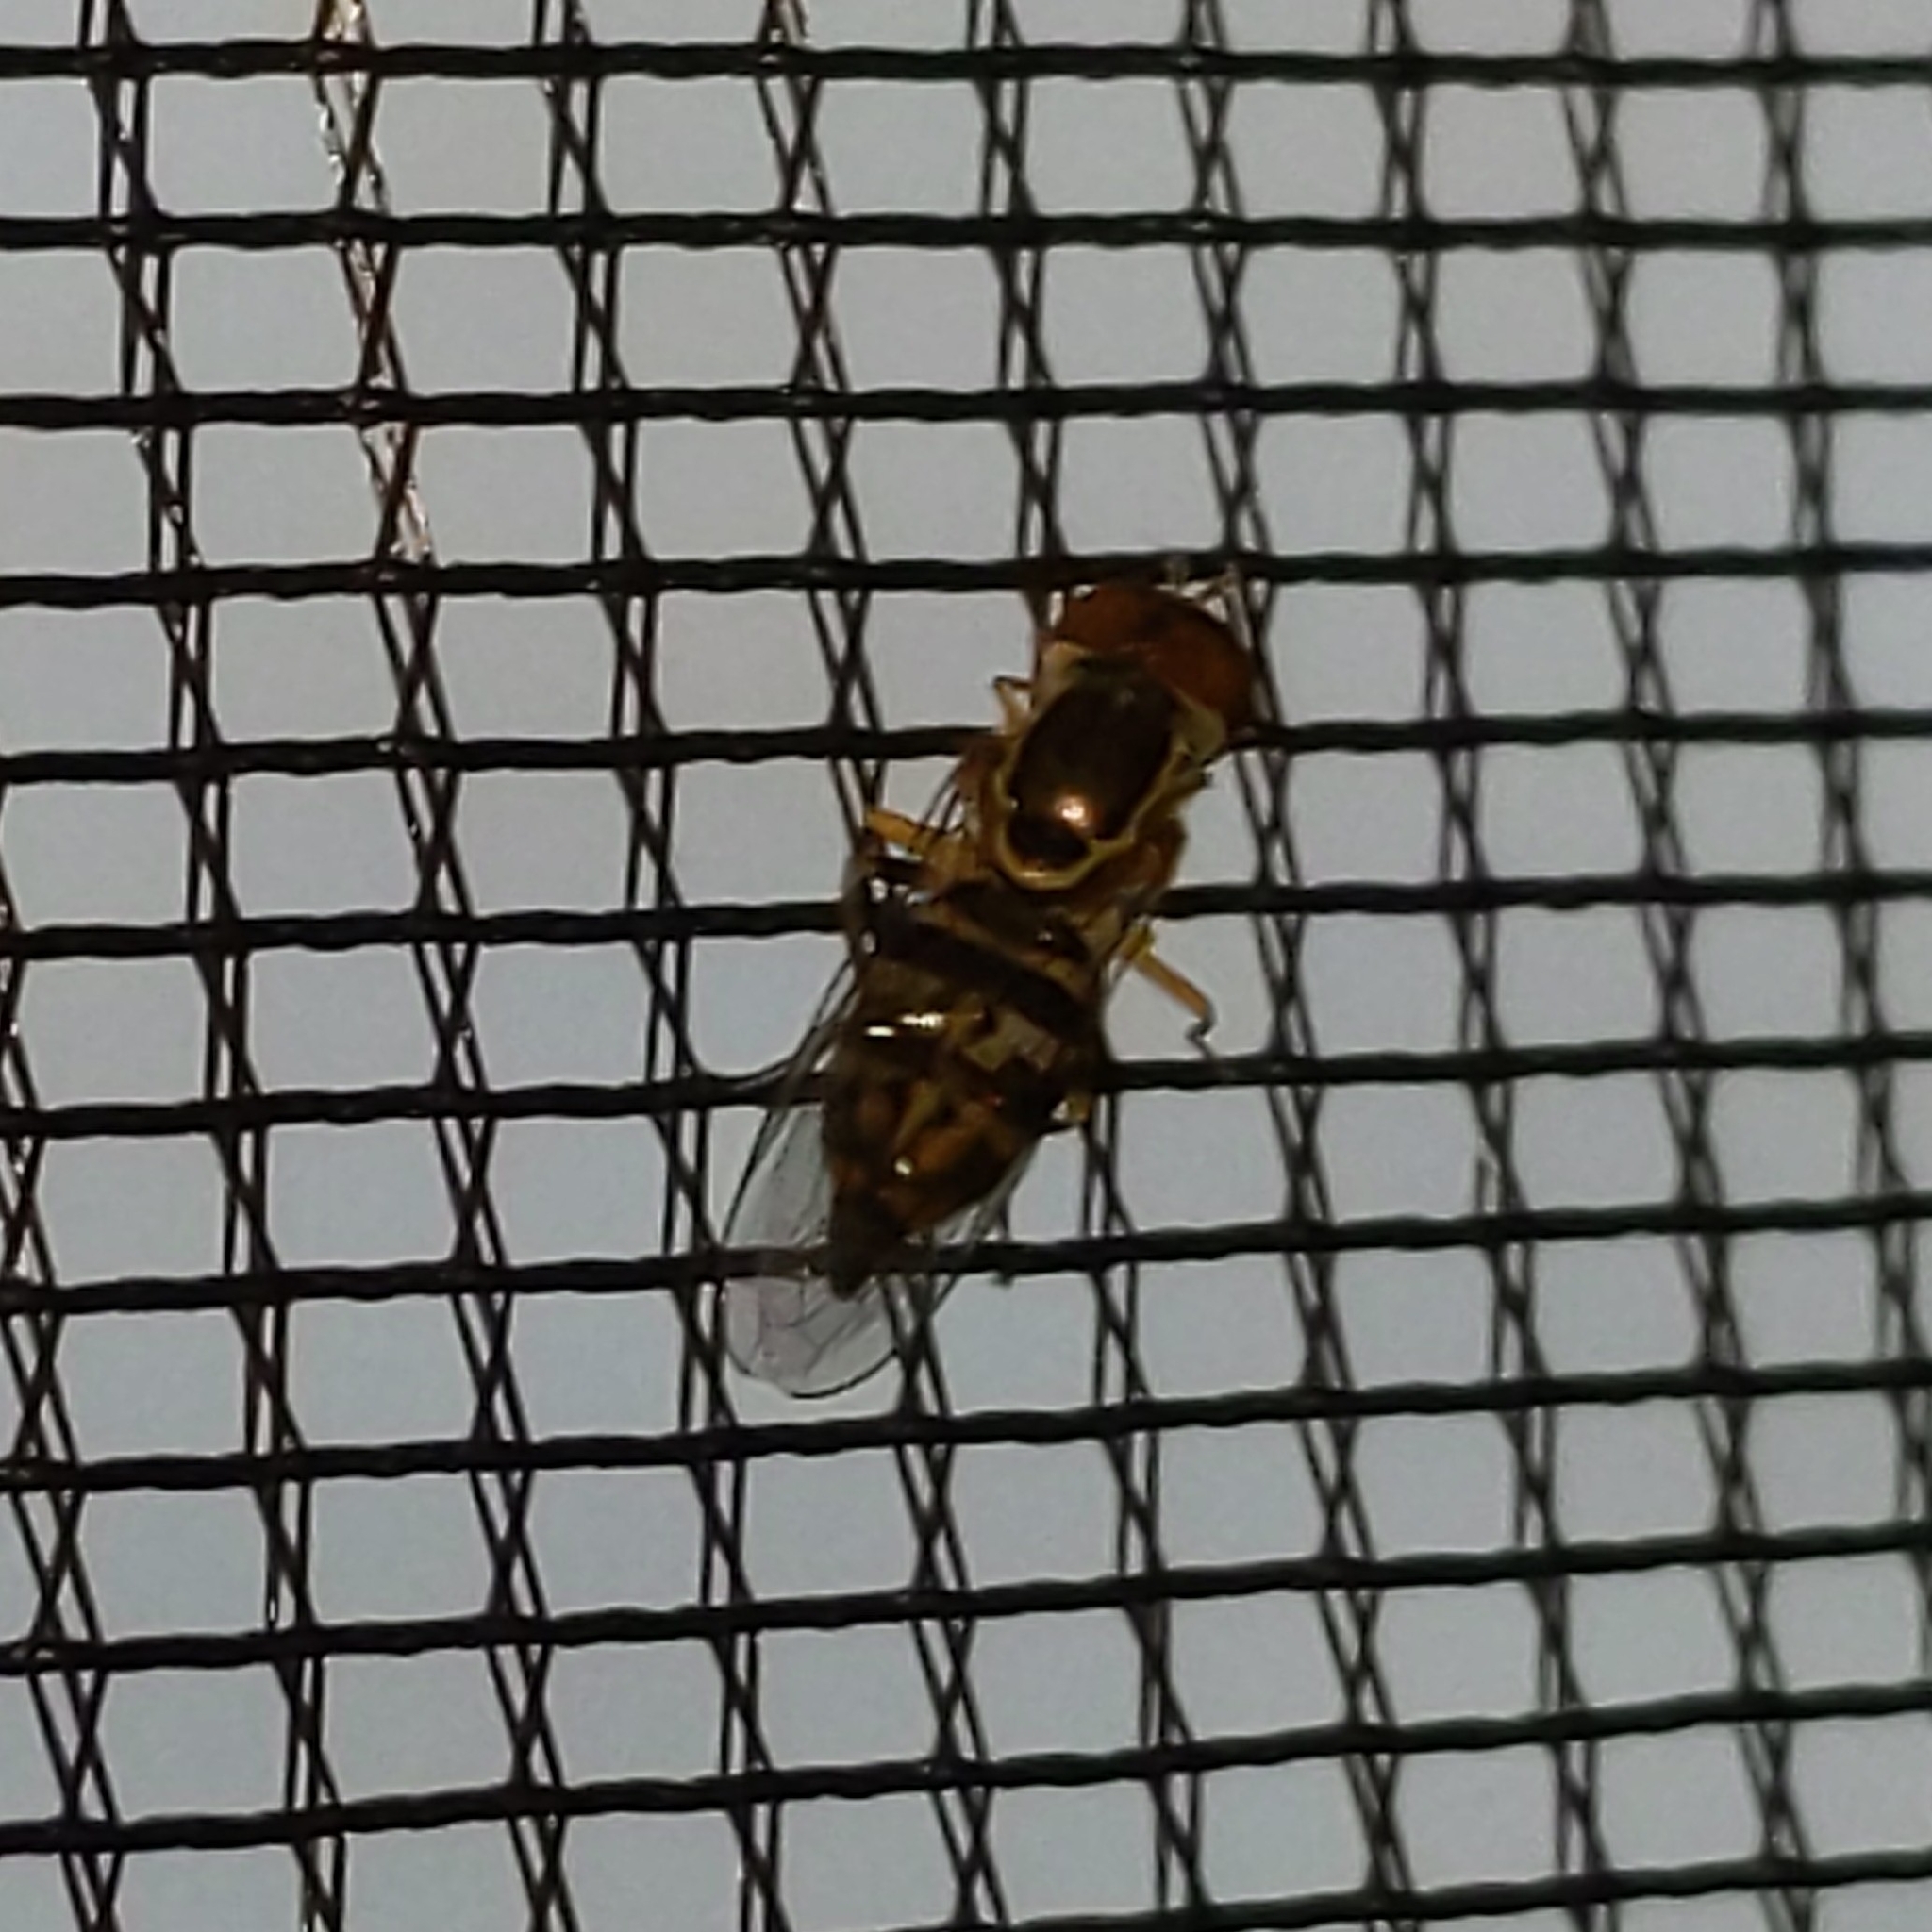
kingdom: Animalia
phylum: Arthropoda
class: Insecta
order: Diptera
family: Syrphidae
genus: Toxomerus
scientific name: Toxomerus geminatus
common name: Eastern calligrapher
